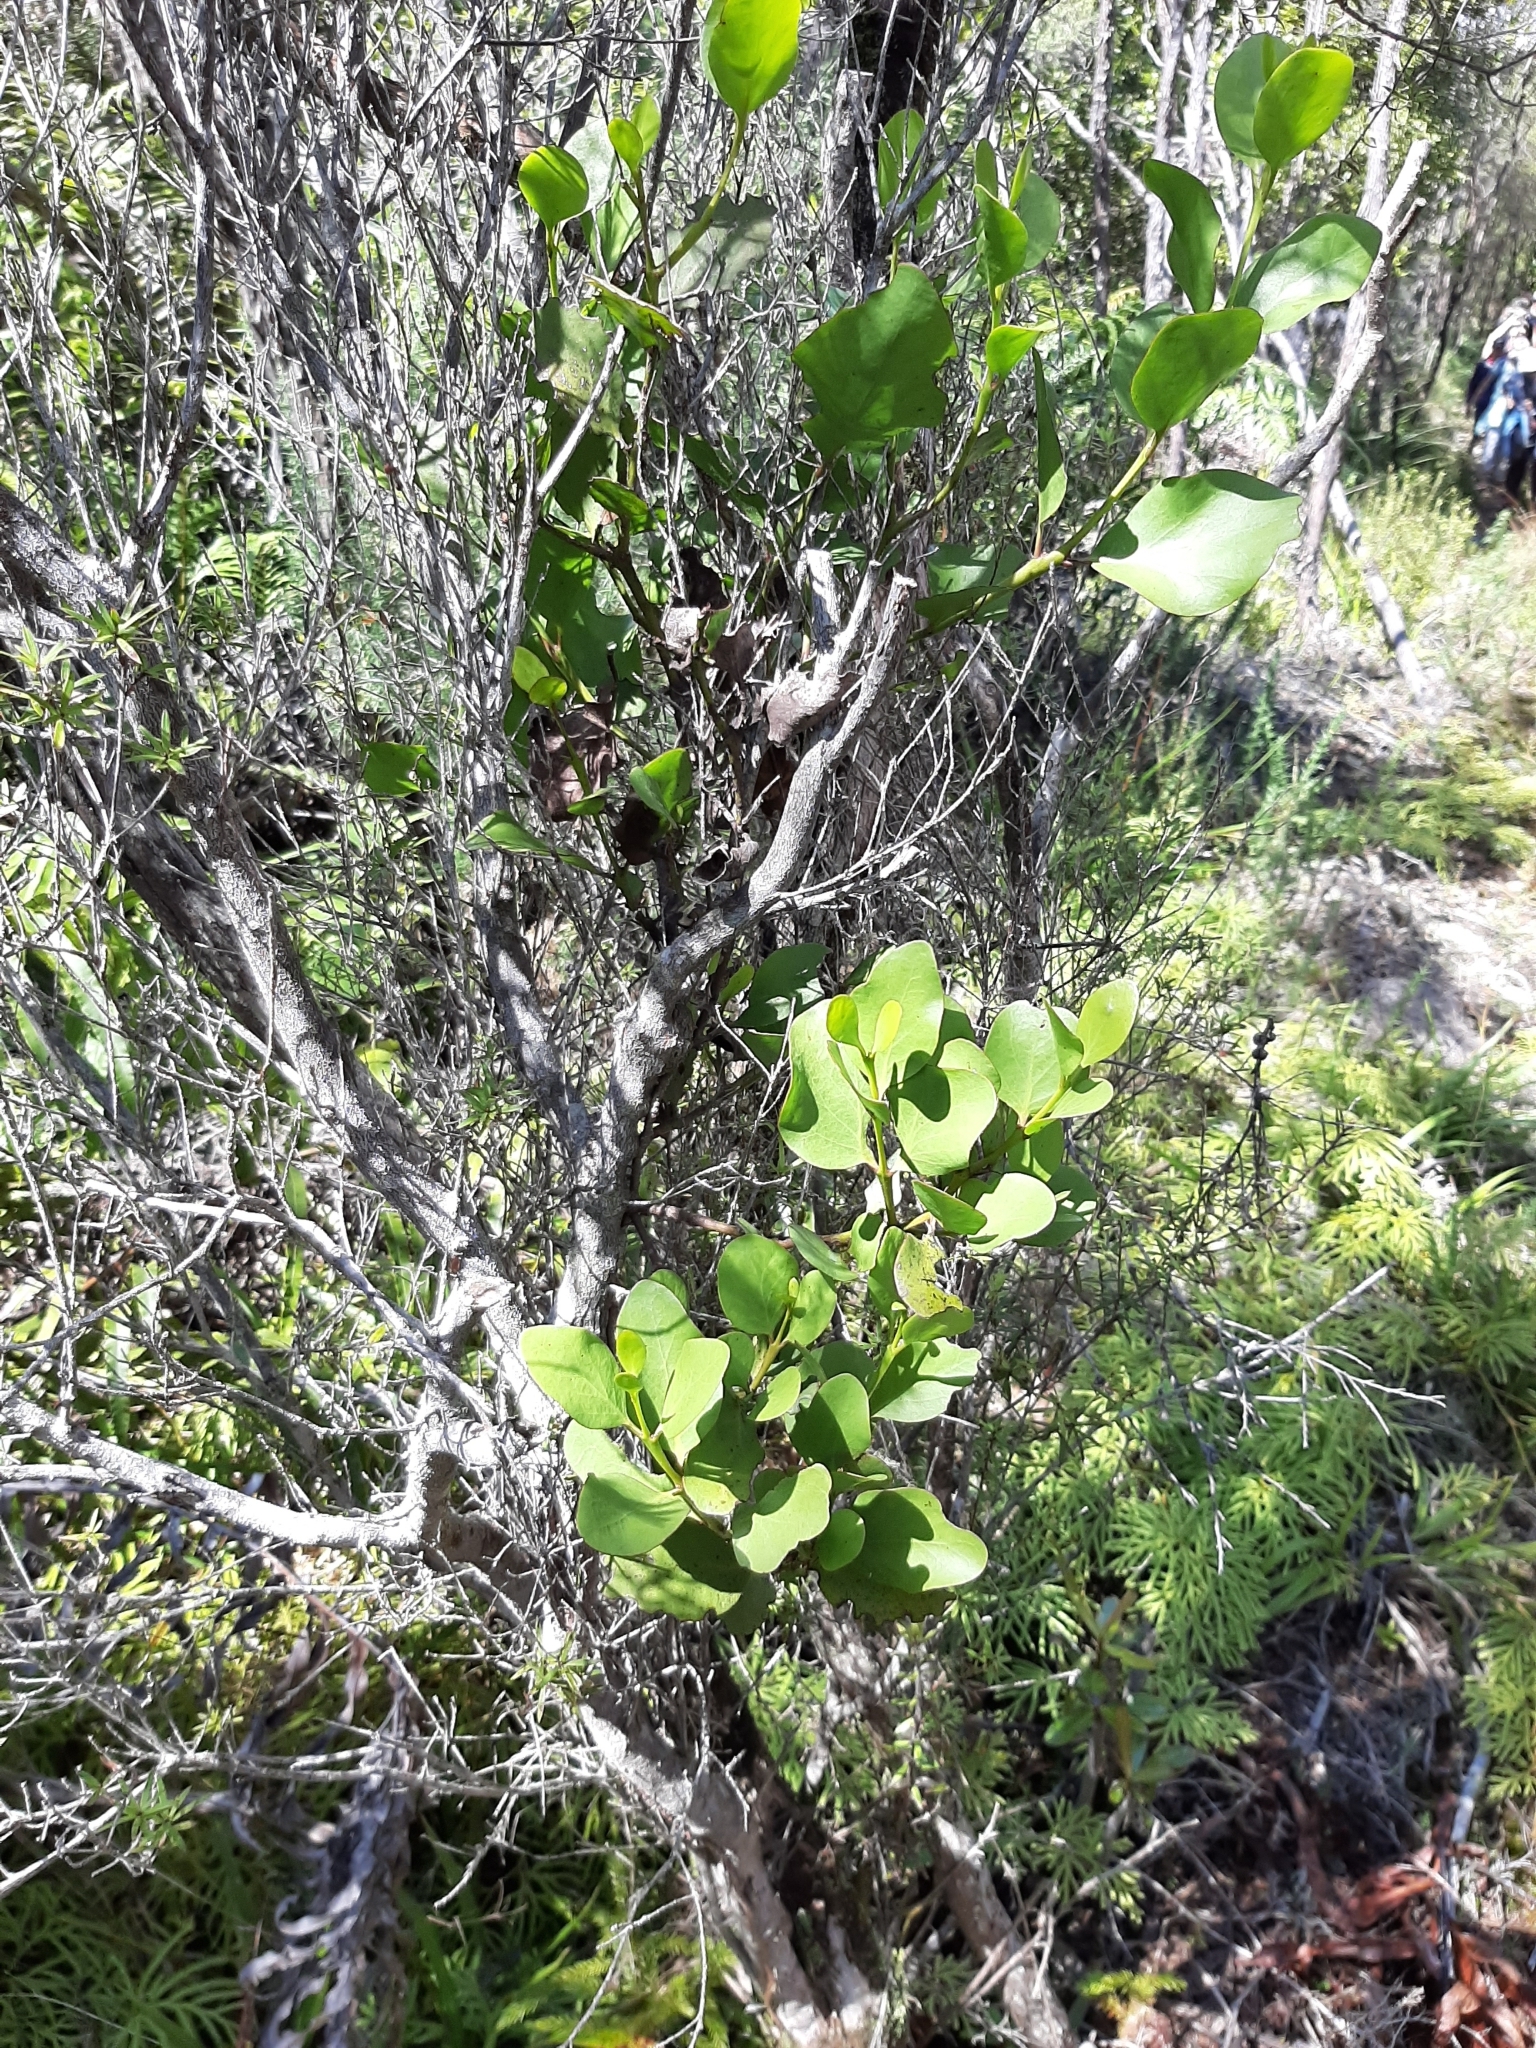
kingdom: Plantae
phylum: Tracheophyta
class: Magnoliopsida
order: Santalales
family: Loranthaceae
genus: Ileostylus
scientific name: Ileostylus micranthus
